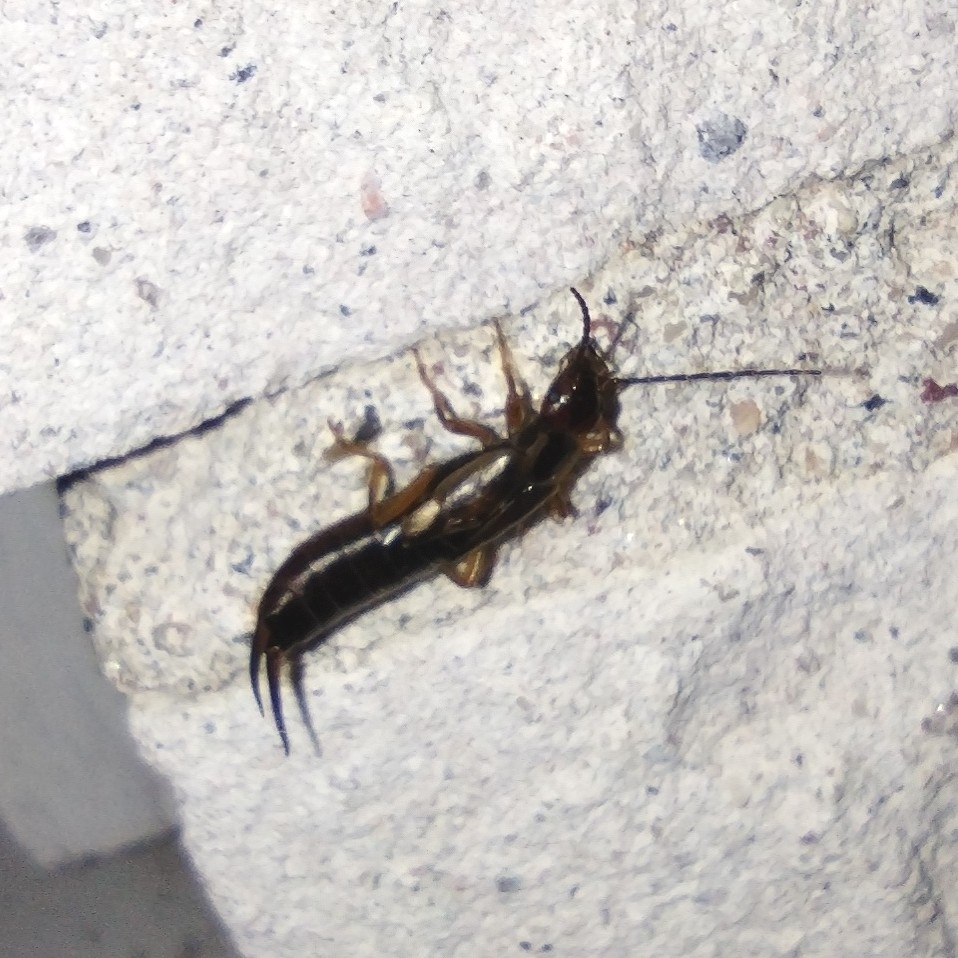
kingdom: Animalia
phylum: Arthropoda
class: Insecta
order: Dermaptera
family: Forficulidae
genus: Forficula
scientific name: Forficula
